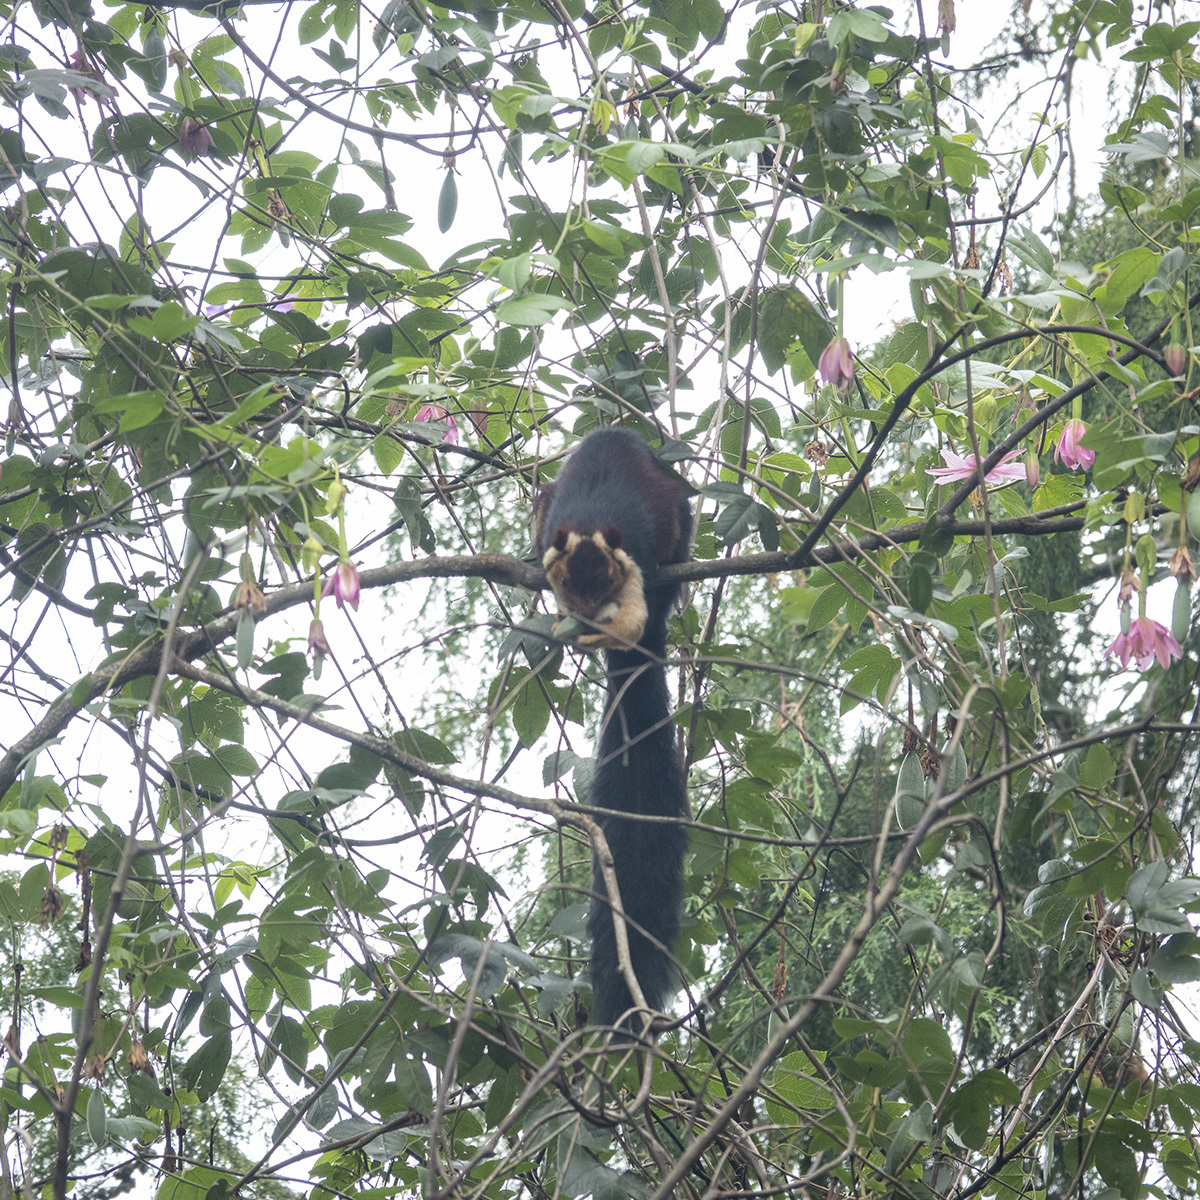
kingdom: Animalia
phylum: Chordata
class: Mammalia
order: Rodentia
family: Sciuridae
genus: Ratufa
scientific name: Ratufa indica
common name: Indian giant squirrel
